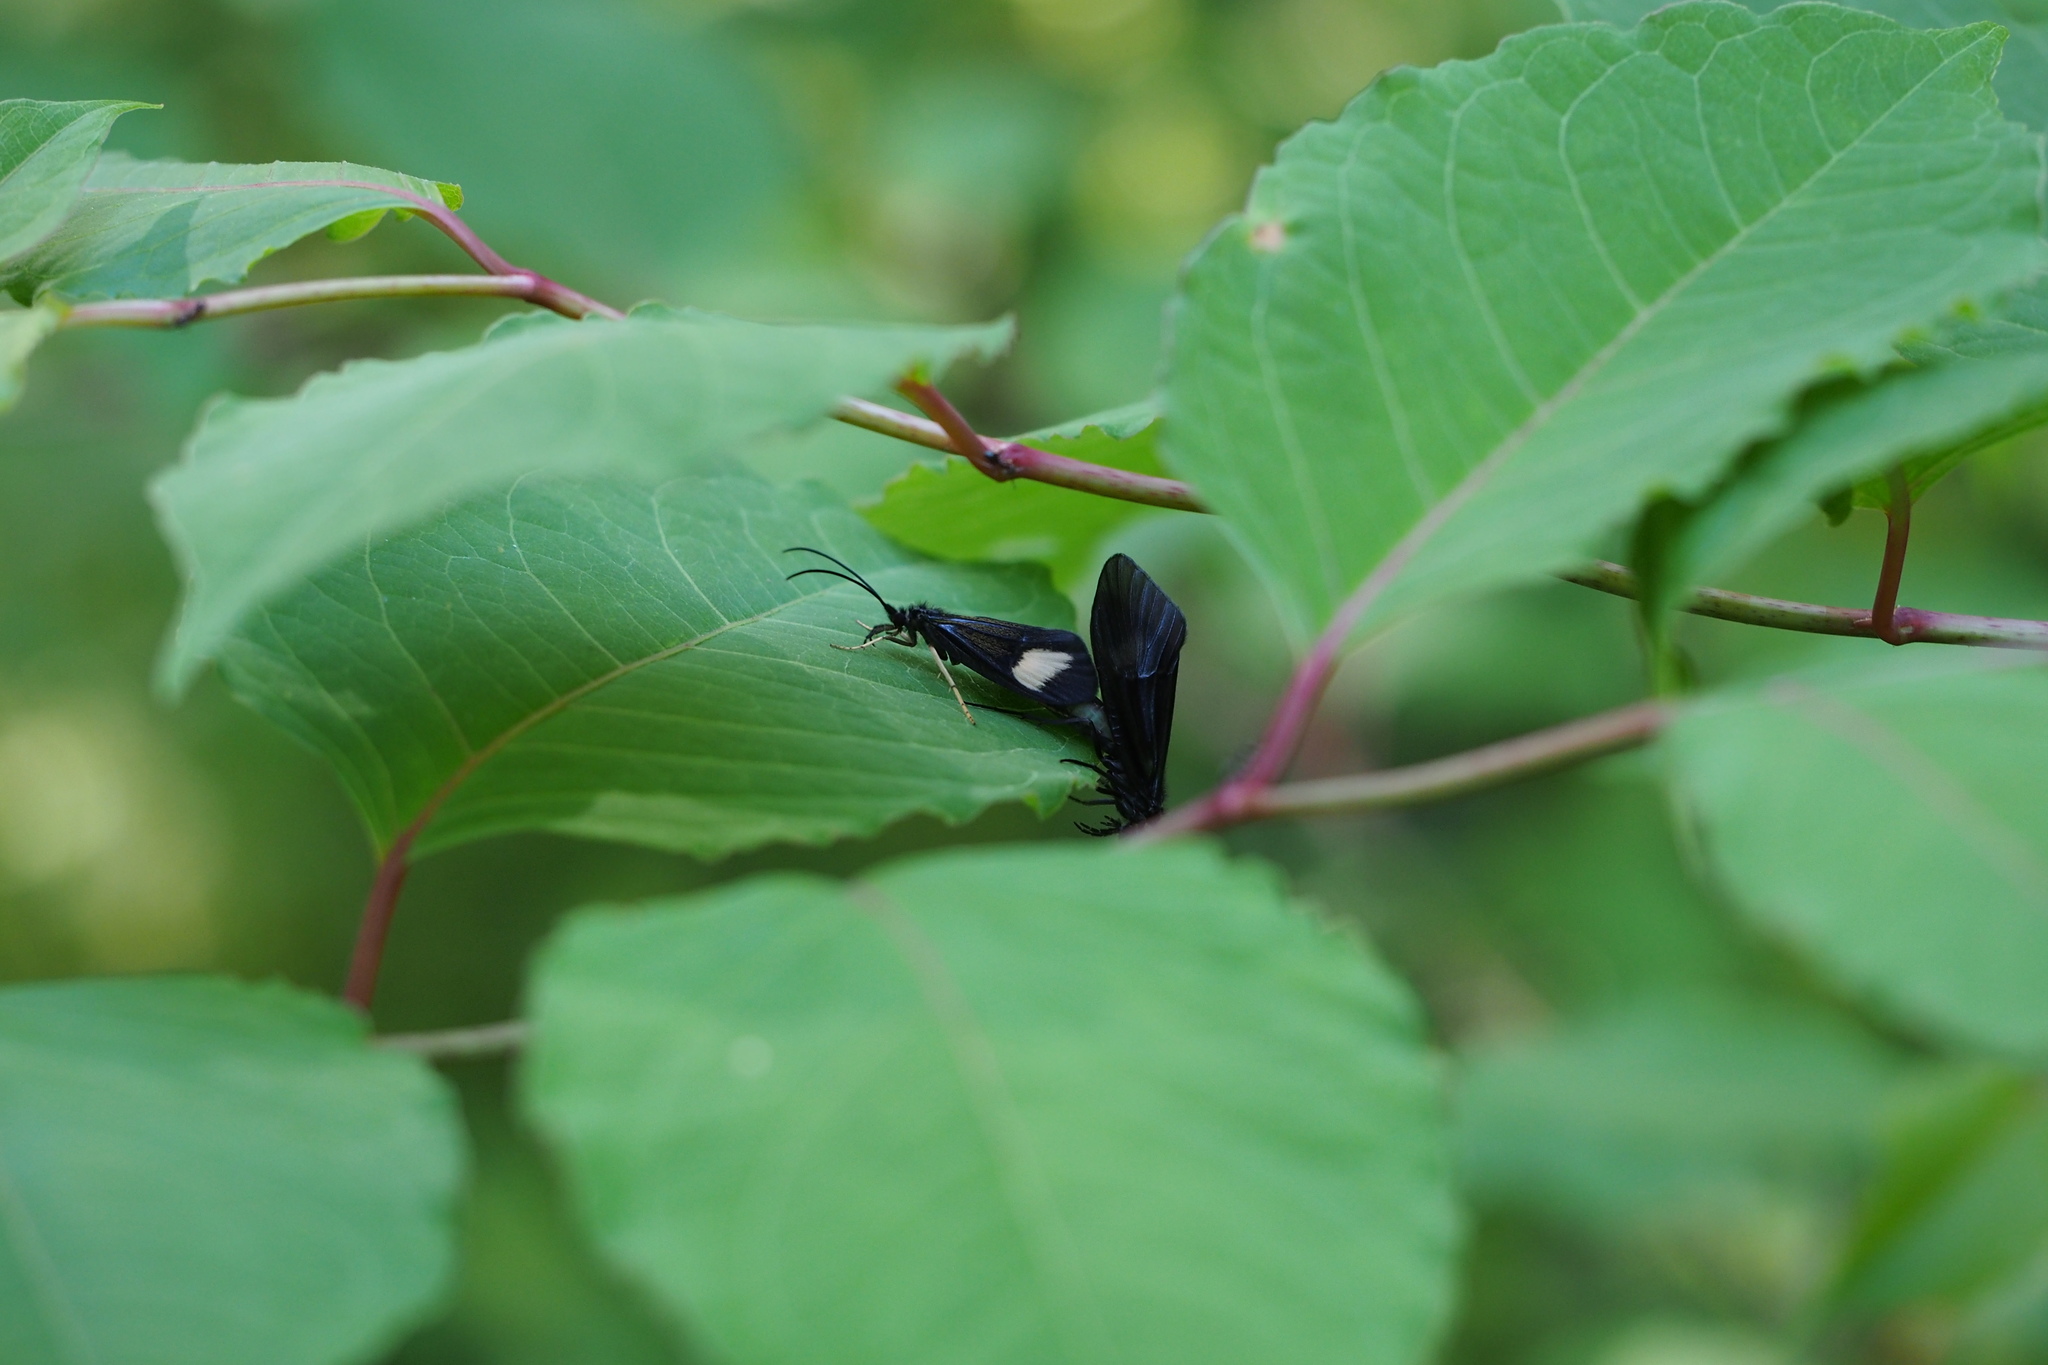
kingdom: Animalia
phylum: Arthropoda
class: Insecta
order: Trichoptera
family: Odontoceridae
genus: Perissoneura
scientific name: Perissoneura paradoxa
